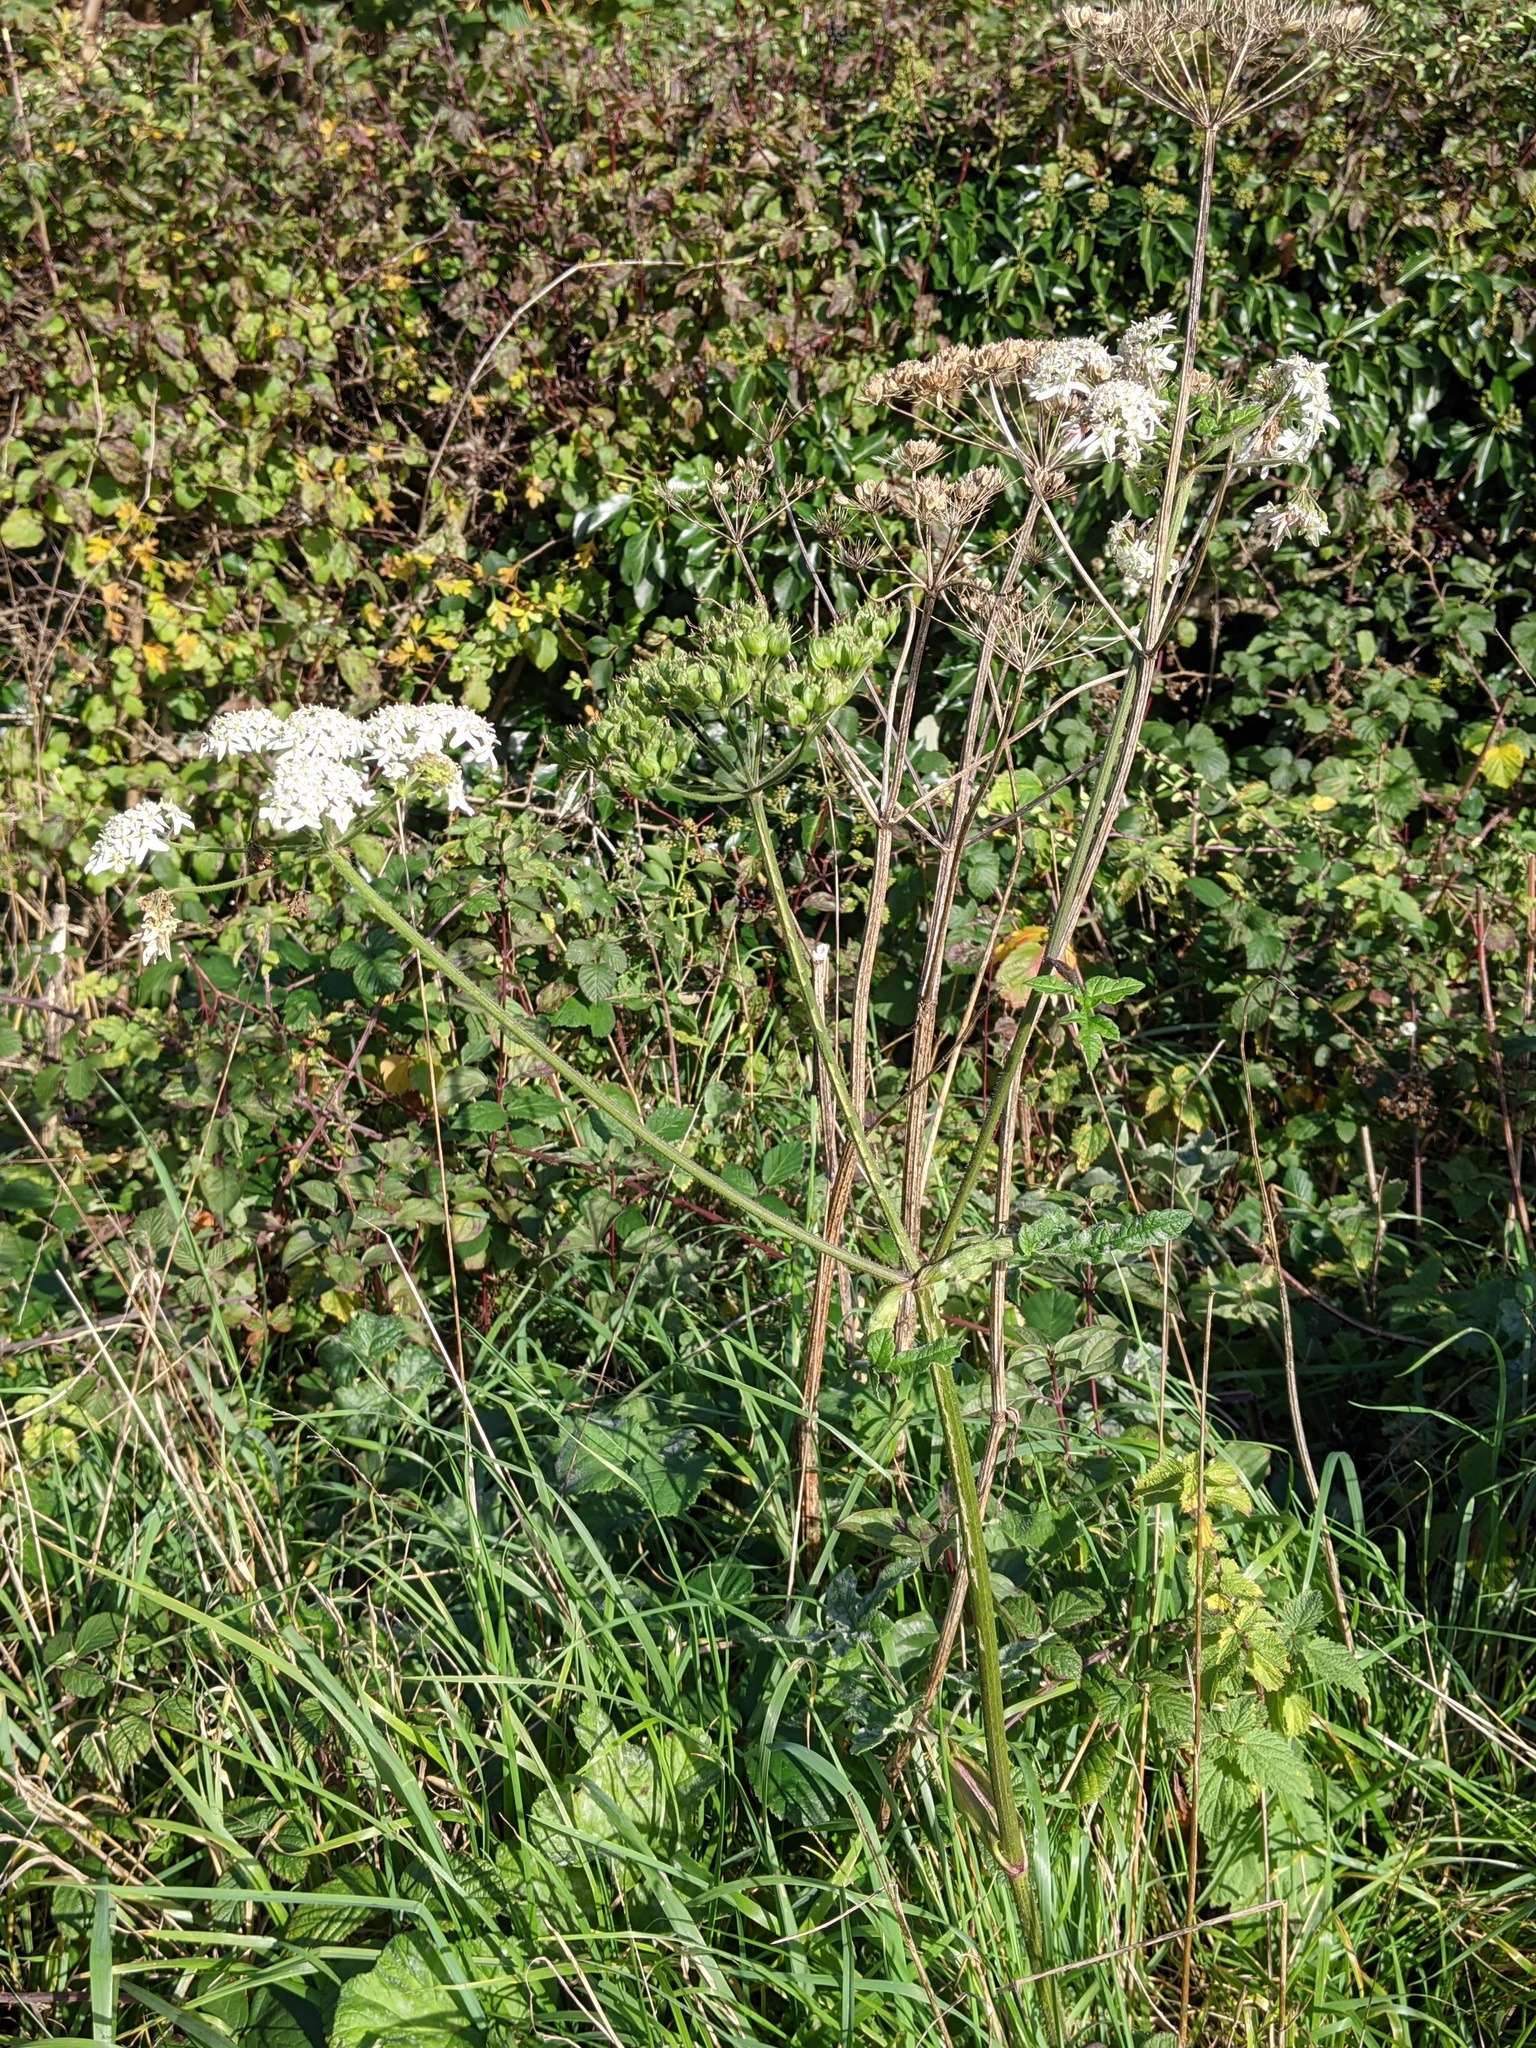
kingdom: Plantae
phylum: Tracheophyta
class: Magnoliopsida
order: Apiales
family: Apiaceae
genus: Heracleum
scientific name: Heracleum sphondylium
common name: Hogweed
